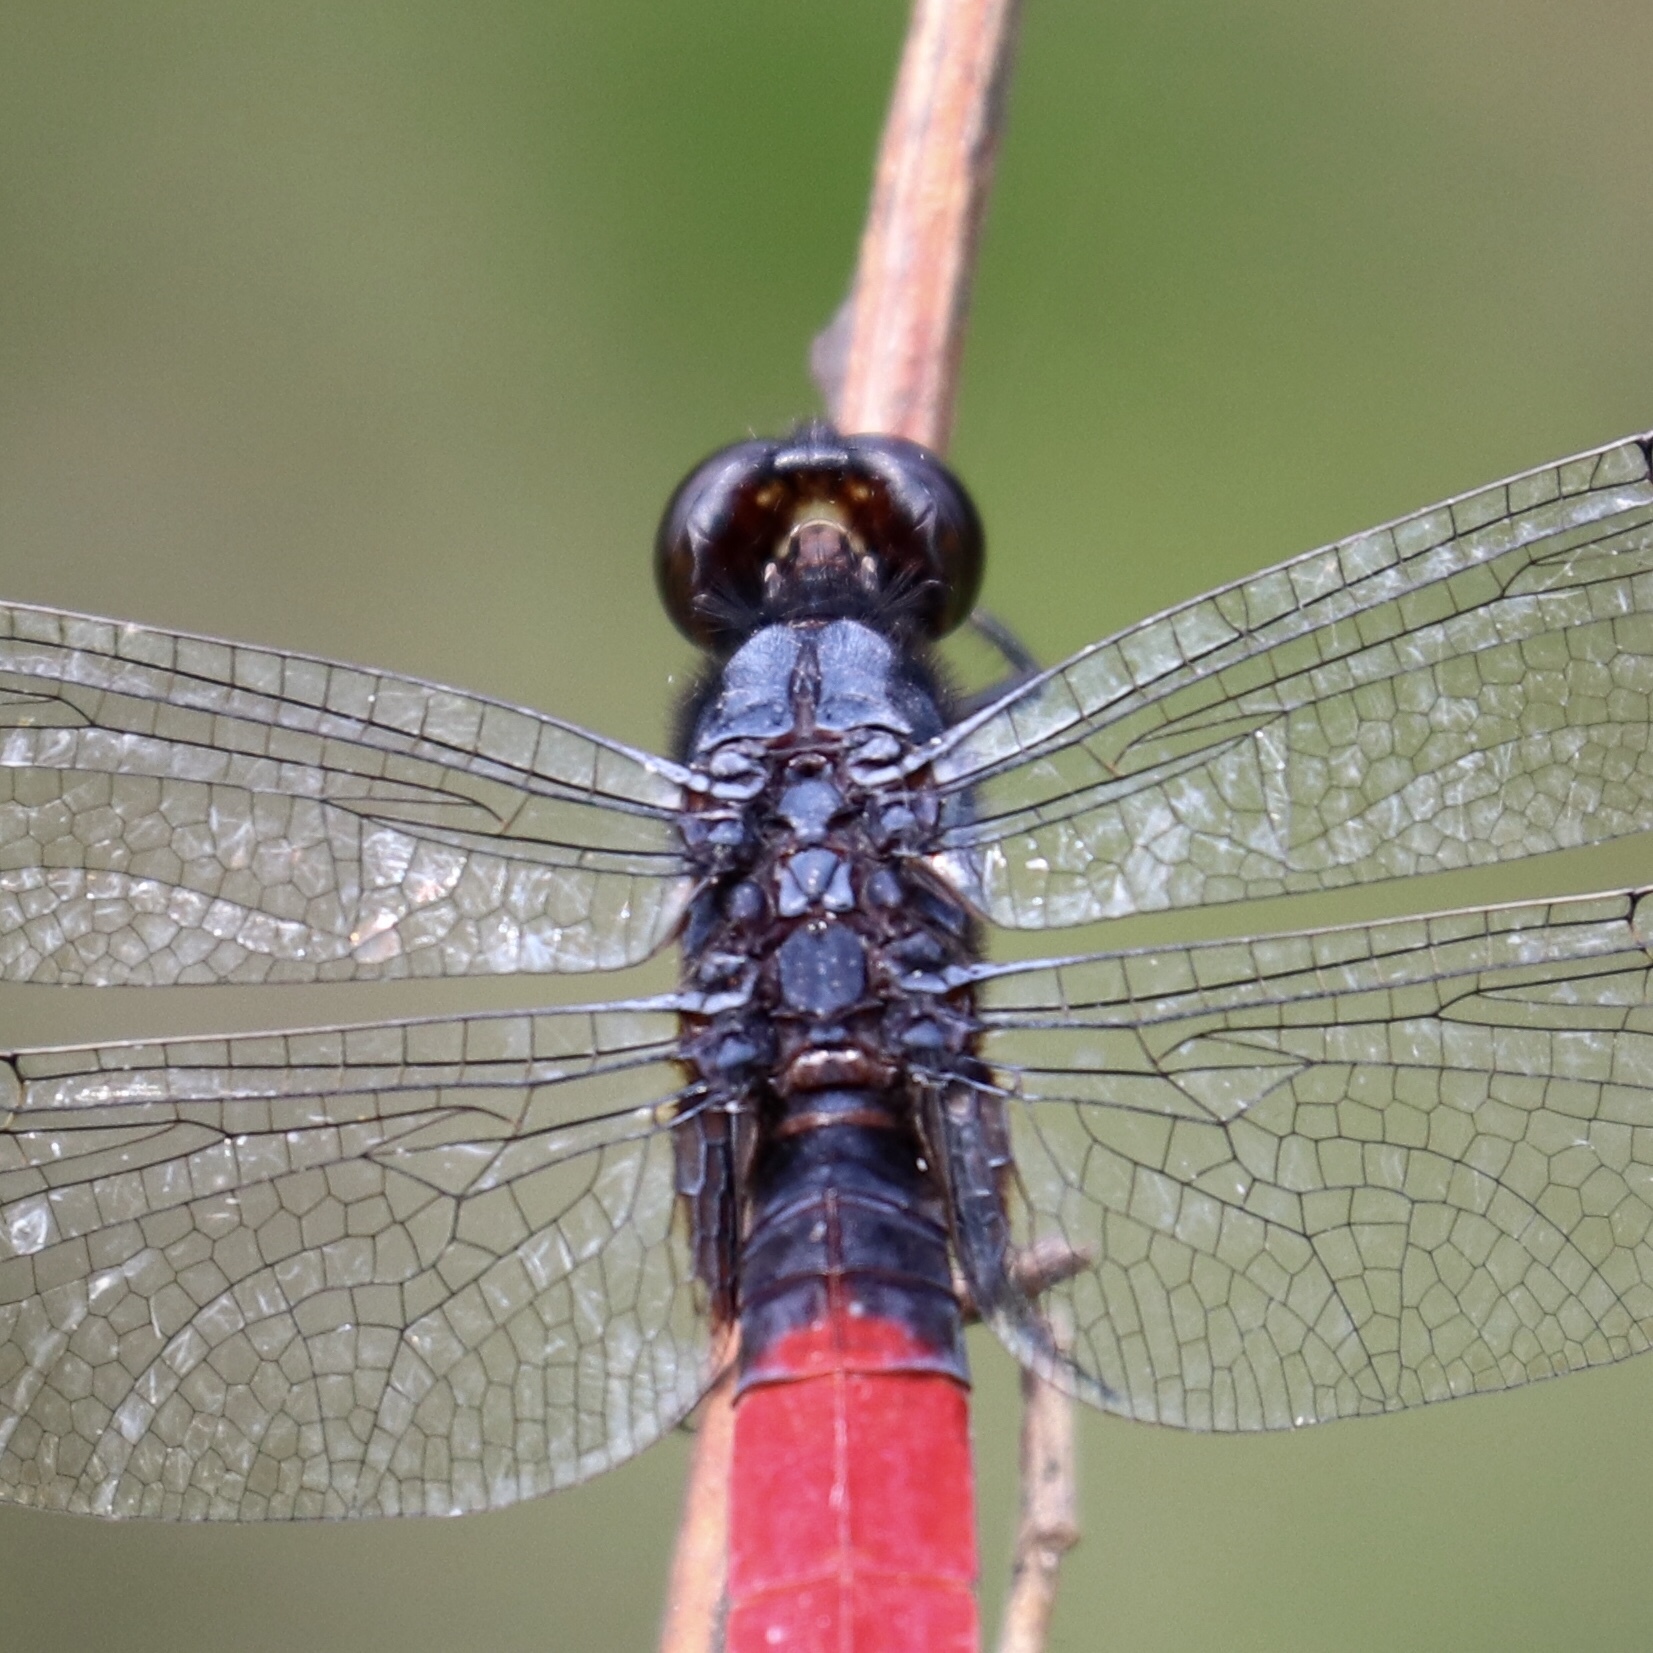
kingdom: Animalia
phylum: Arthropoda
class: Insecta
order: Odonata
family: Libellulidae
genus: Erythemis
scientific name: Erythemis peruviana
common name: Flame-tailed pondhawk
